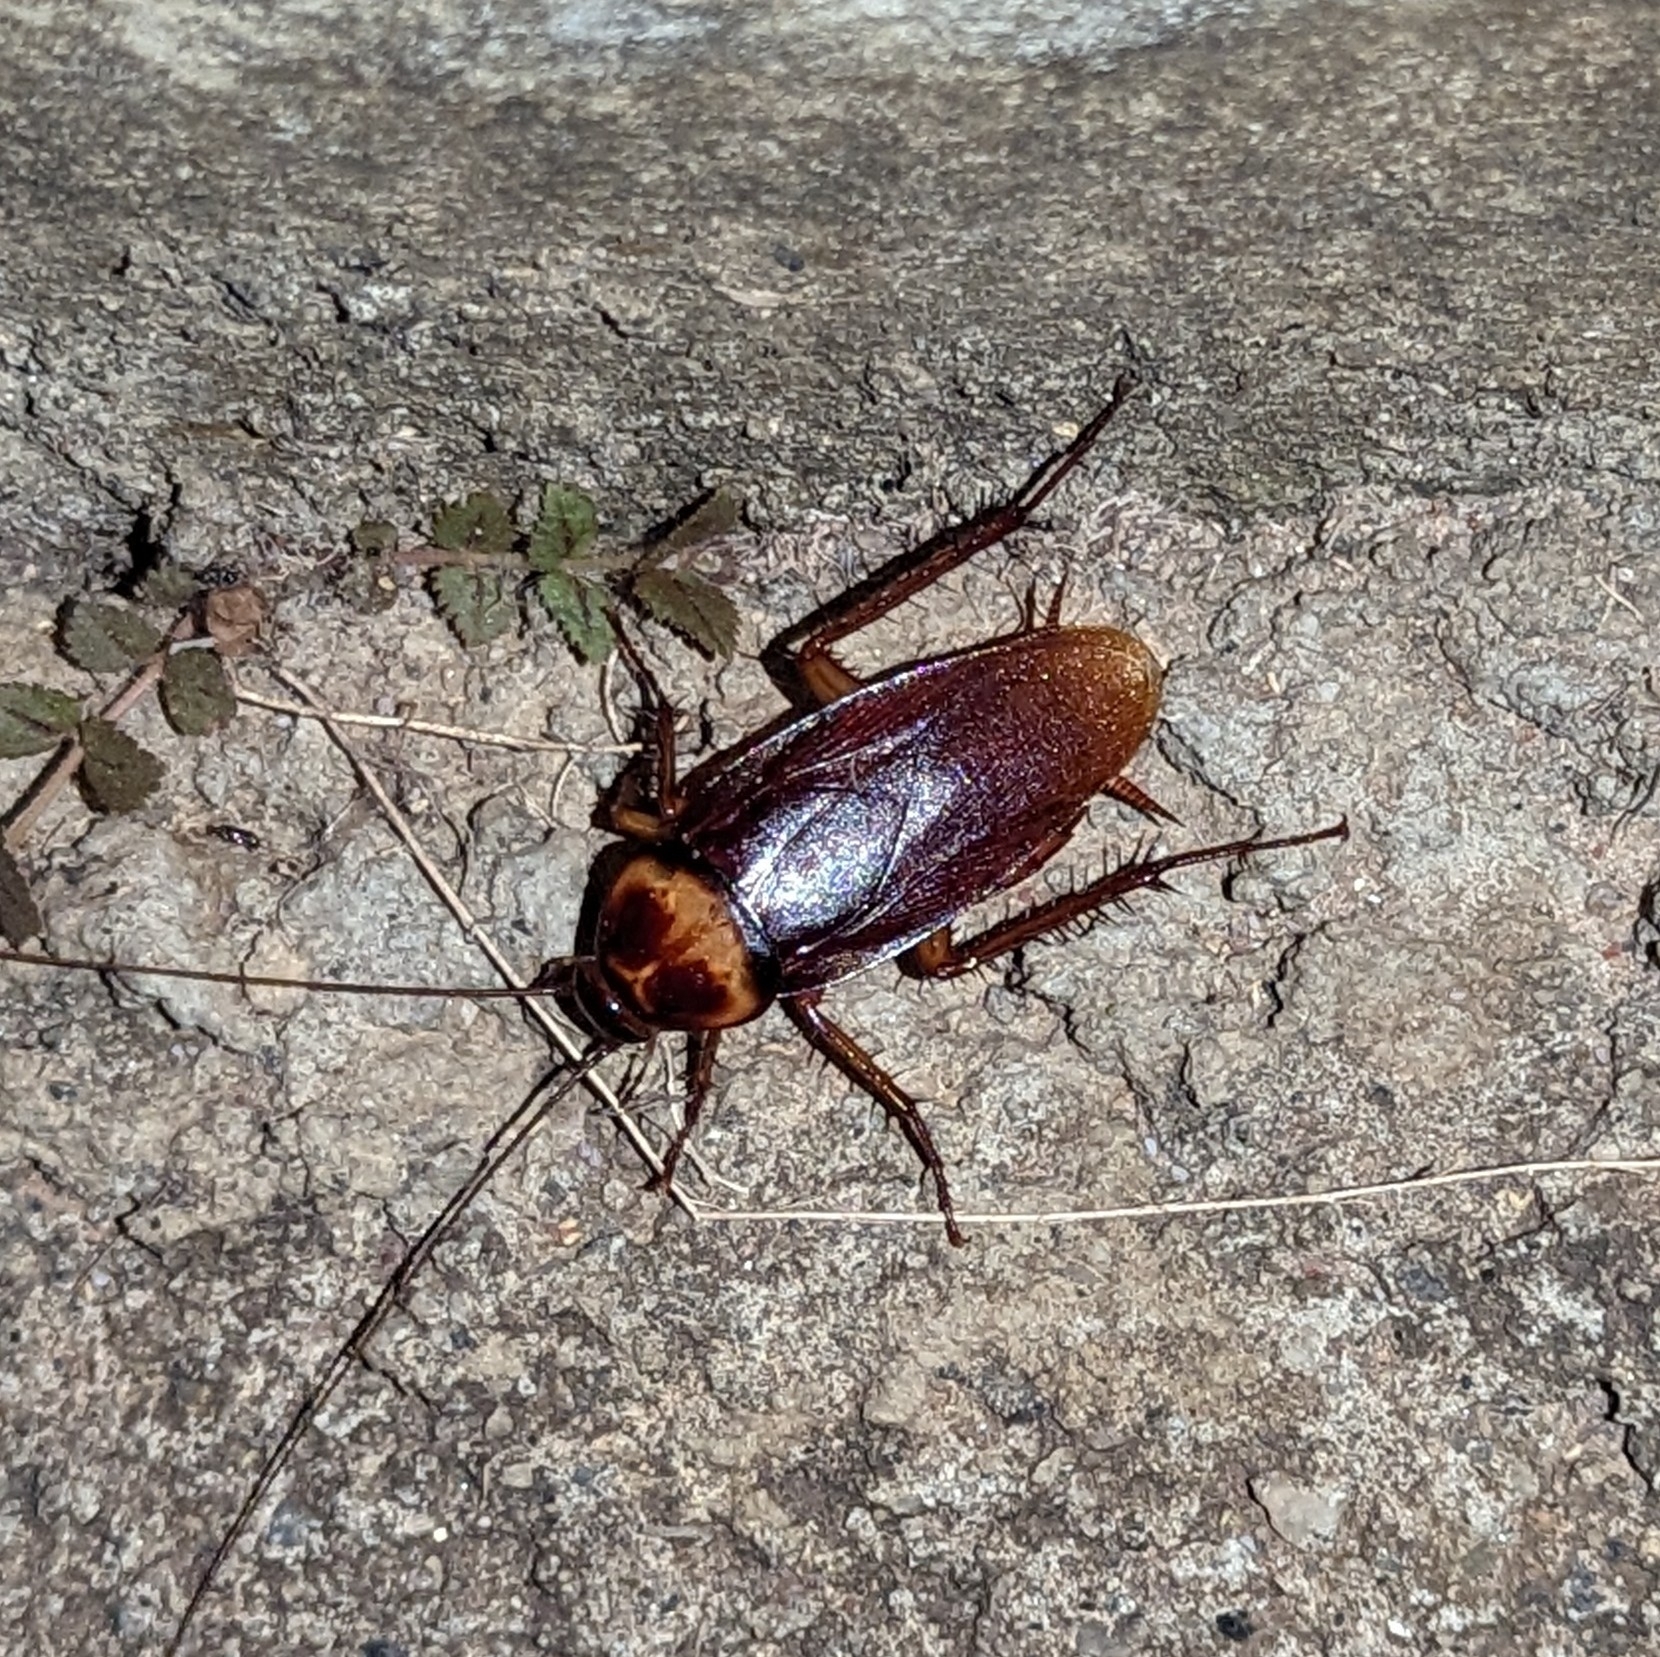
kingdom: Animalia
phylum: Arthropoda
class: Insecta
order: Blattodea
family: Blattidae
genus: Periplaneta
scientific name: Periplaneta americana
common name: American cockroach
